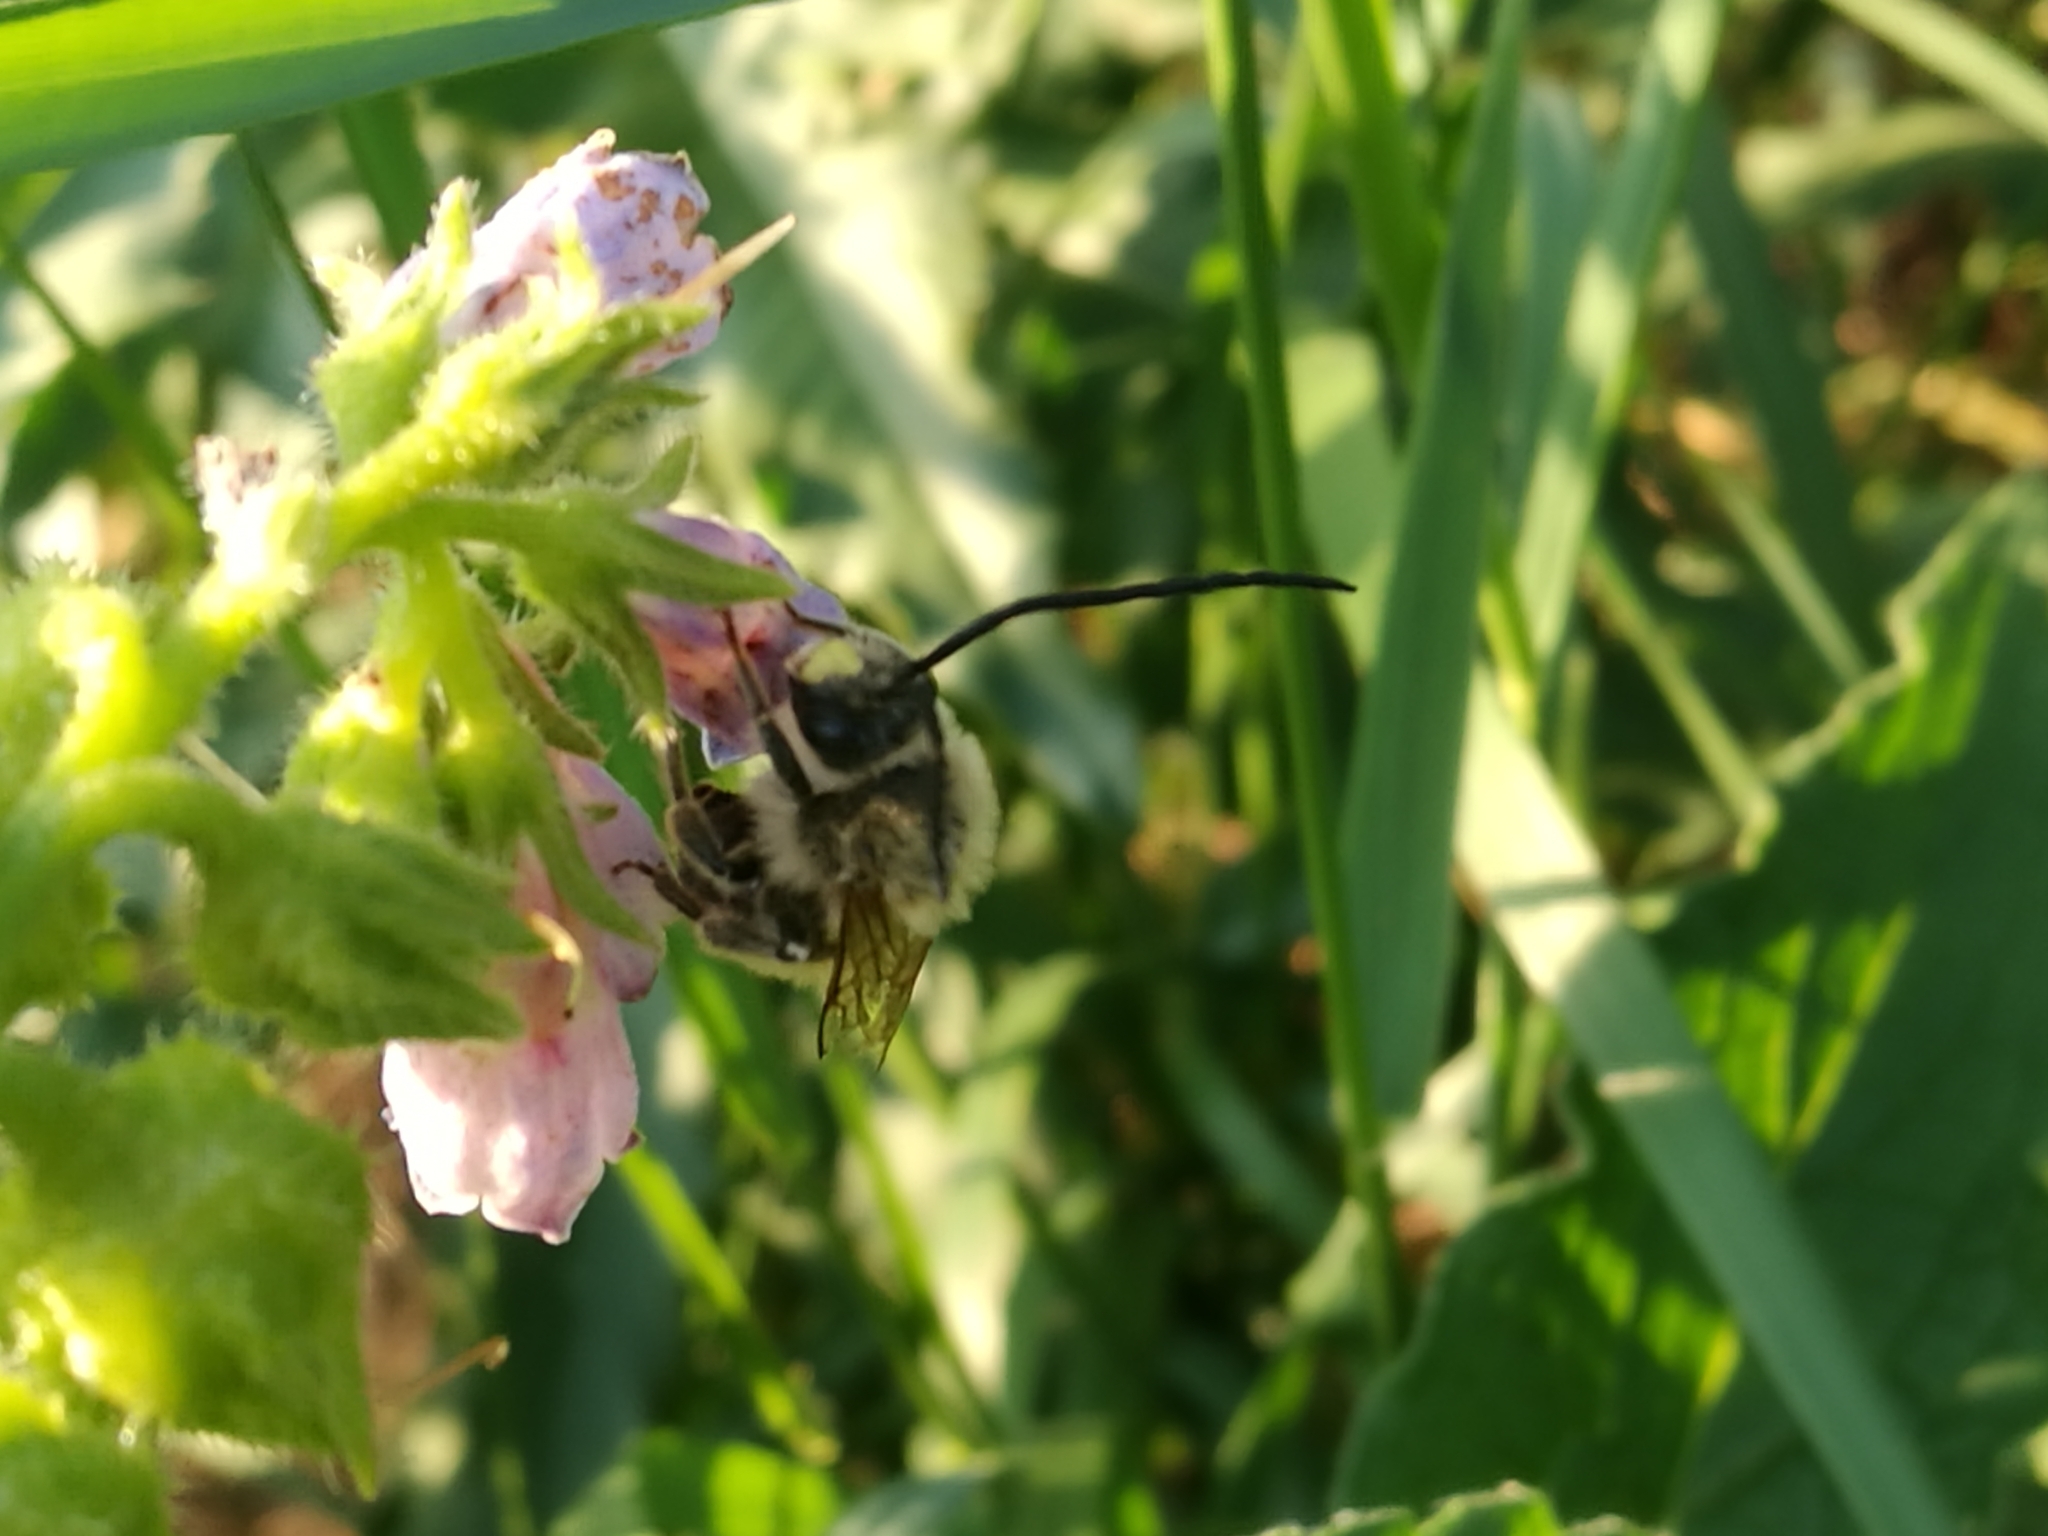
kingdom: Animalia
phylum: Arthropoda
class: Insecta
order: Hymenoptera
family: Apidae
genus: Eucera
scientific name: Eucera longicornis
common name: Long-horned bee
